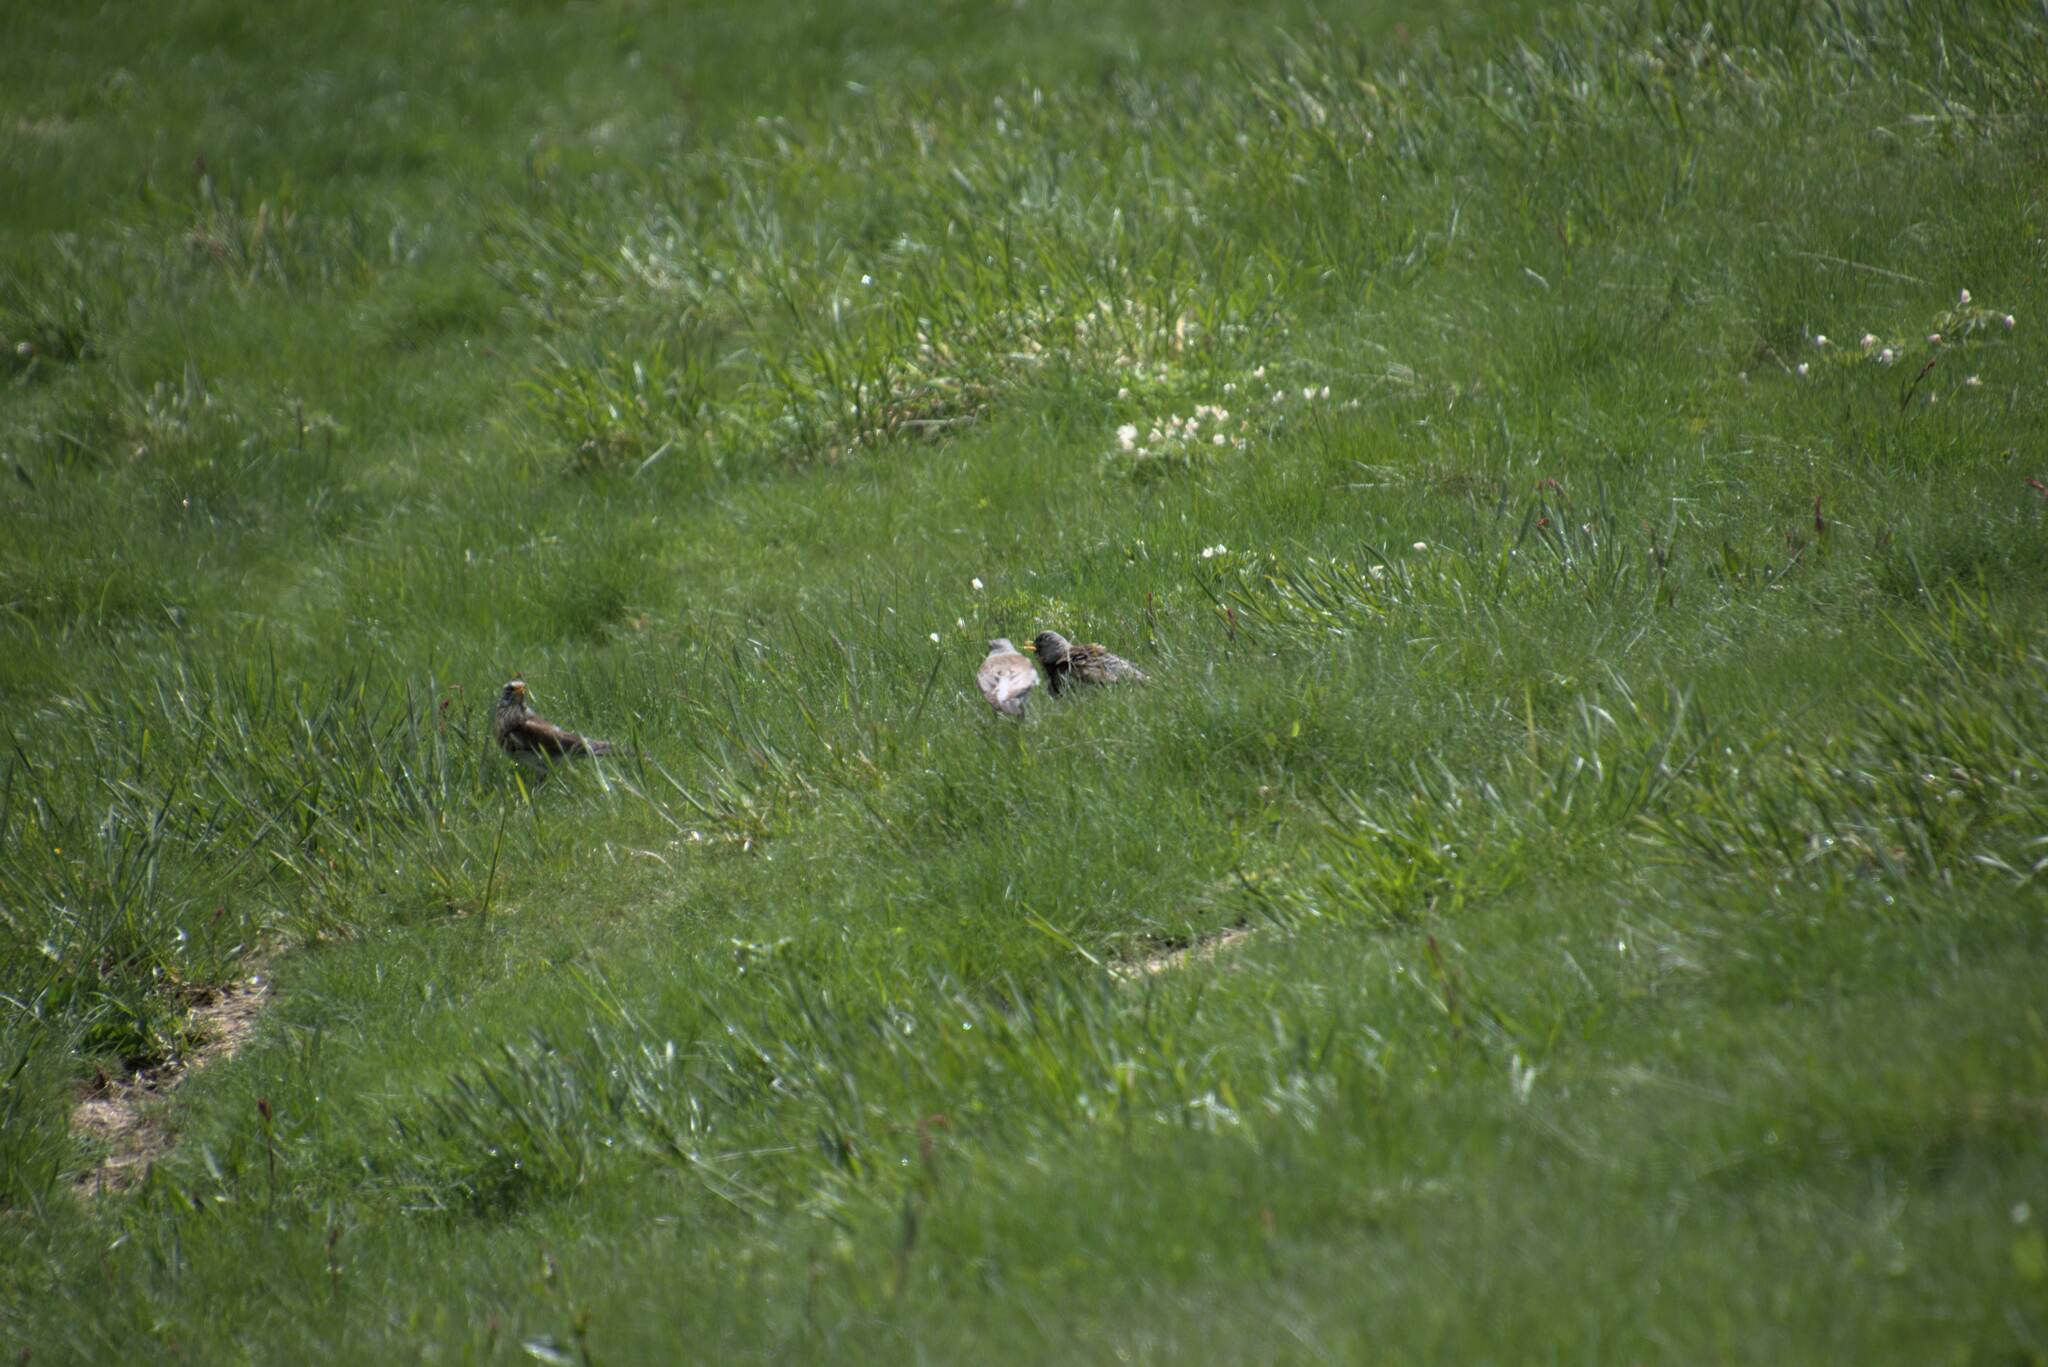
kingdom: Animalia
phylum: Chordata
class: Aves
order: Passeriformes
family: Turdidae
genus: Turdus
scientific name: Turdus pilaris
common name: Fieldfare
